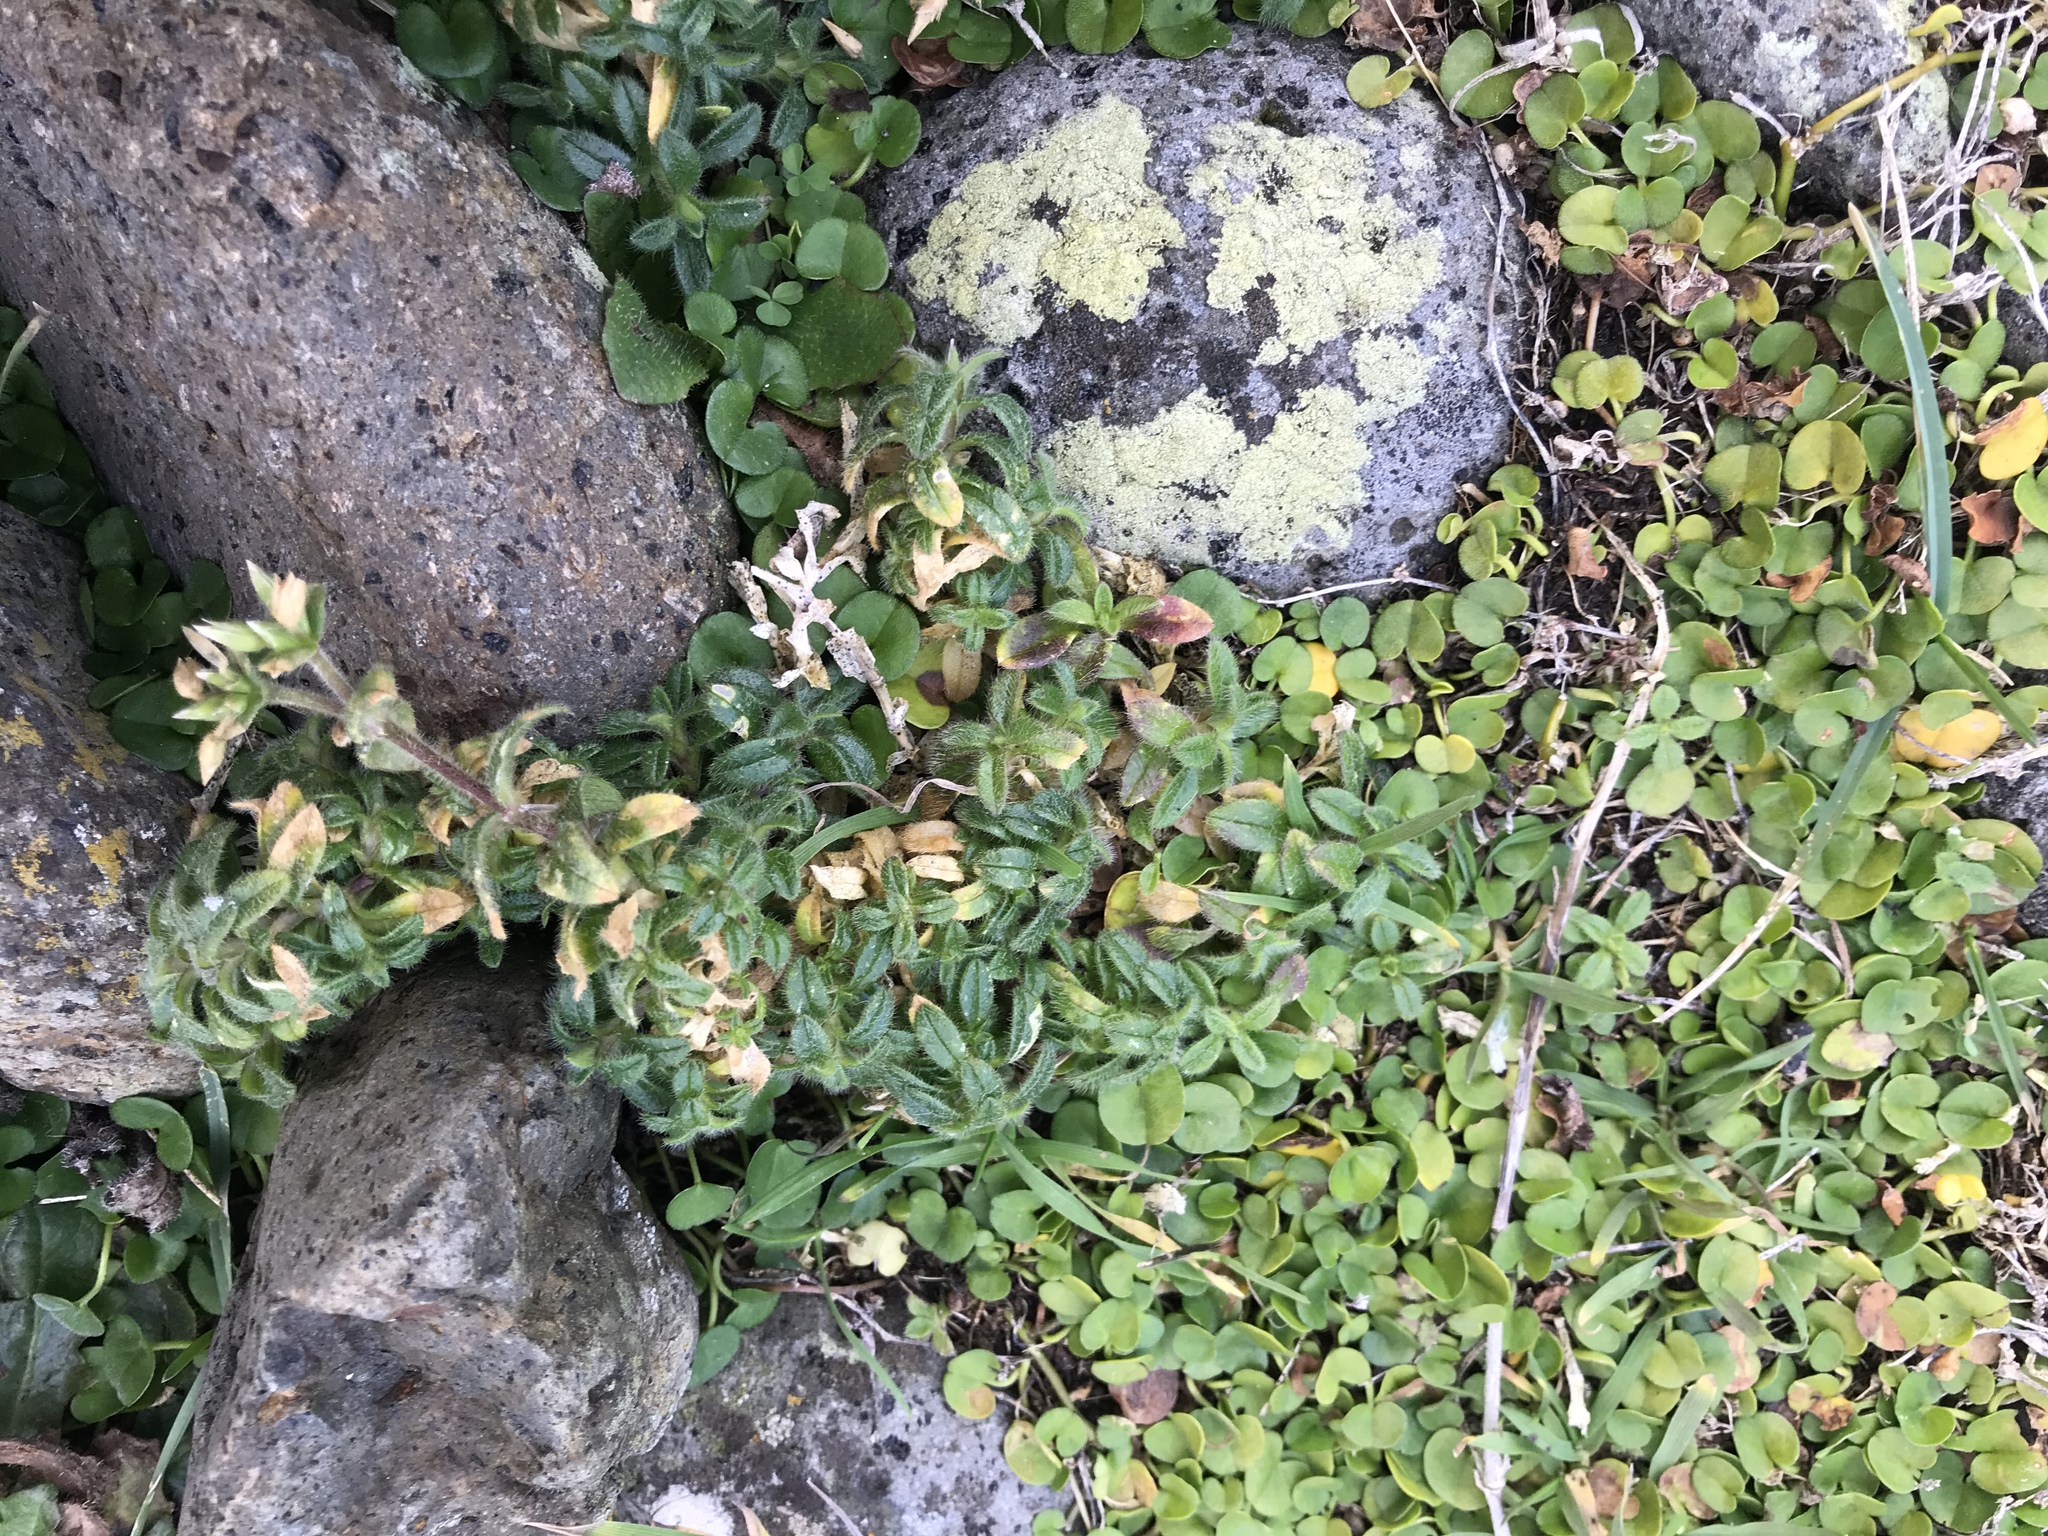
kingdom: Plantae
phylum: Tracheophyta
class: Magnoliopsida
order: Caryophyllales
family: Caryophyllaceae
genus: Cerastium
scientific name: Cerastium fontanum
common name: Common mouse-ear
